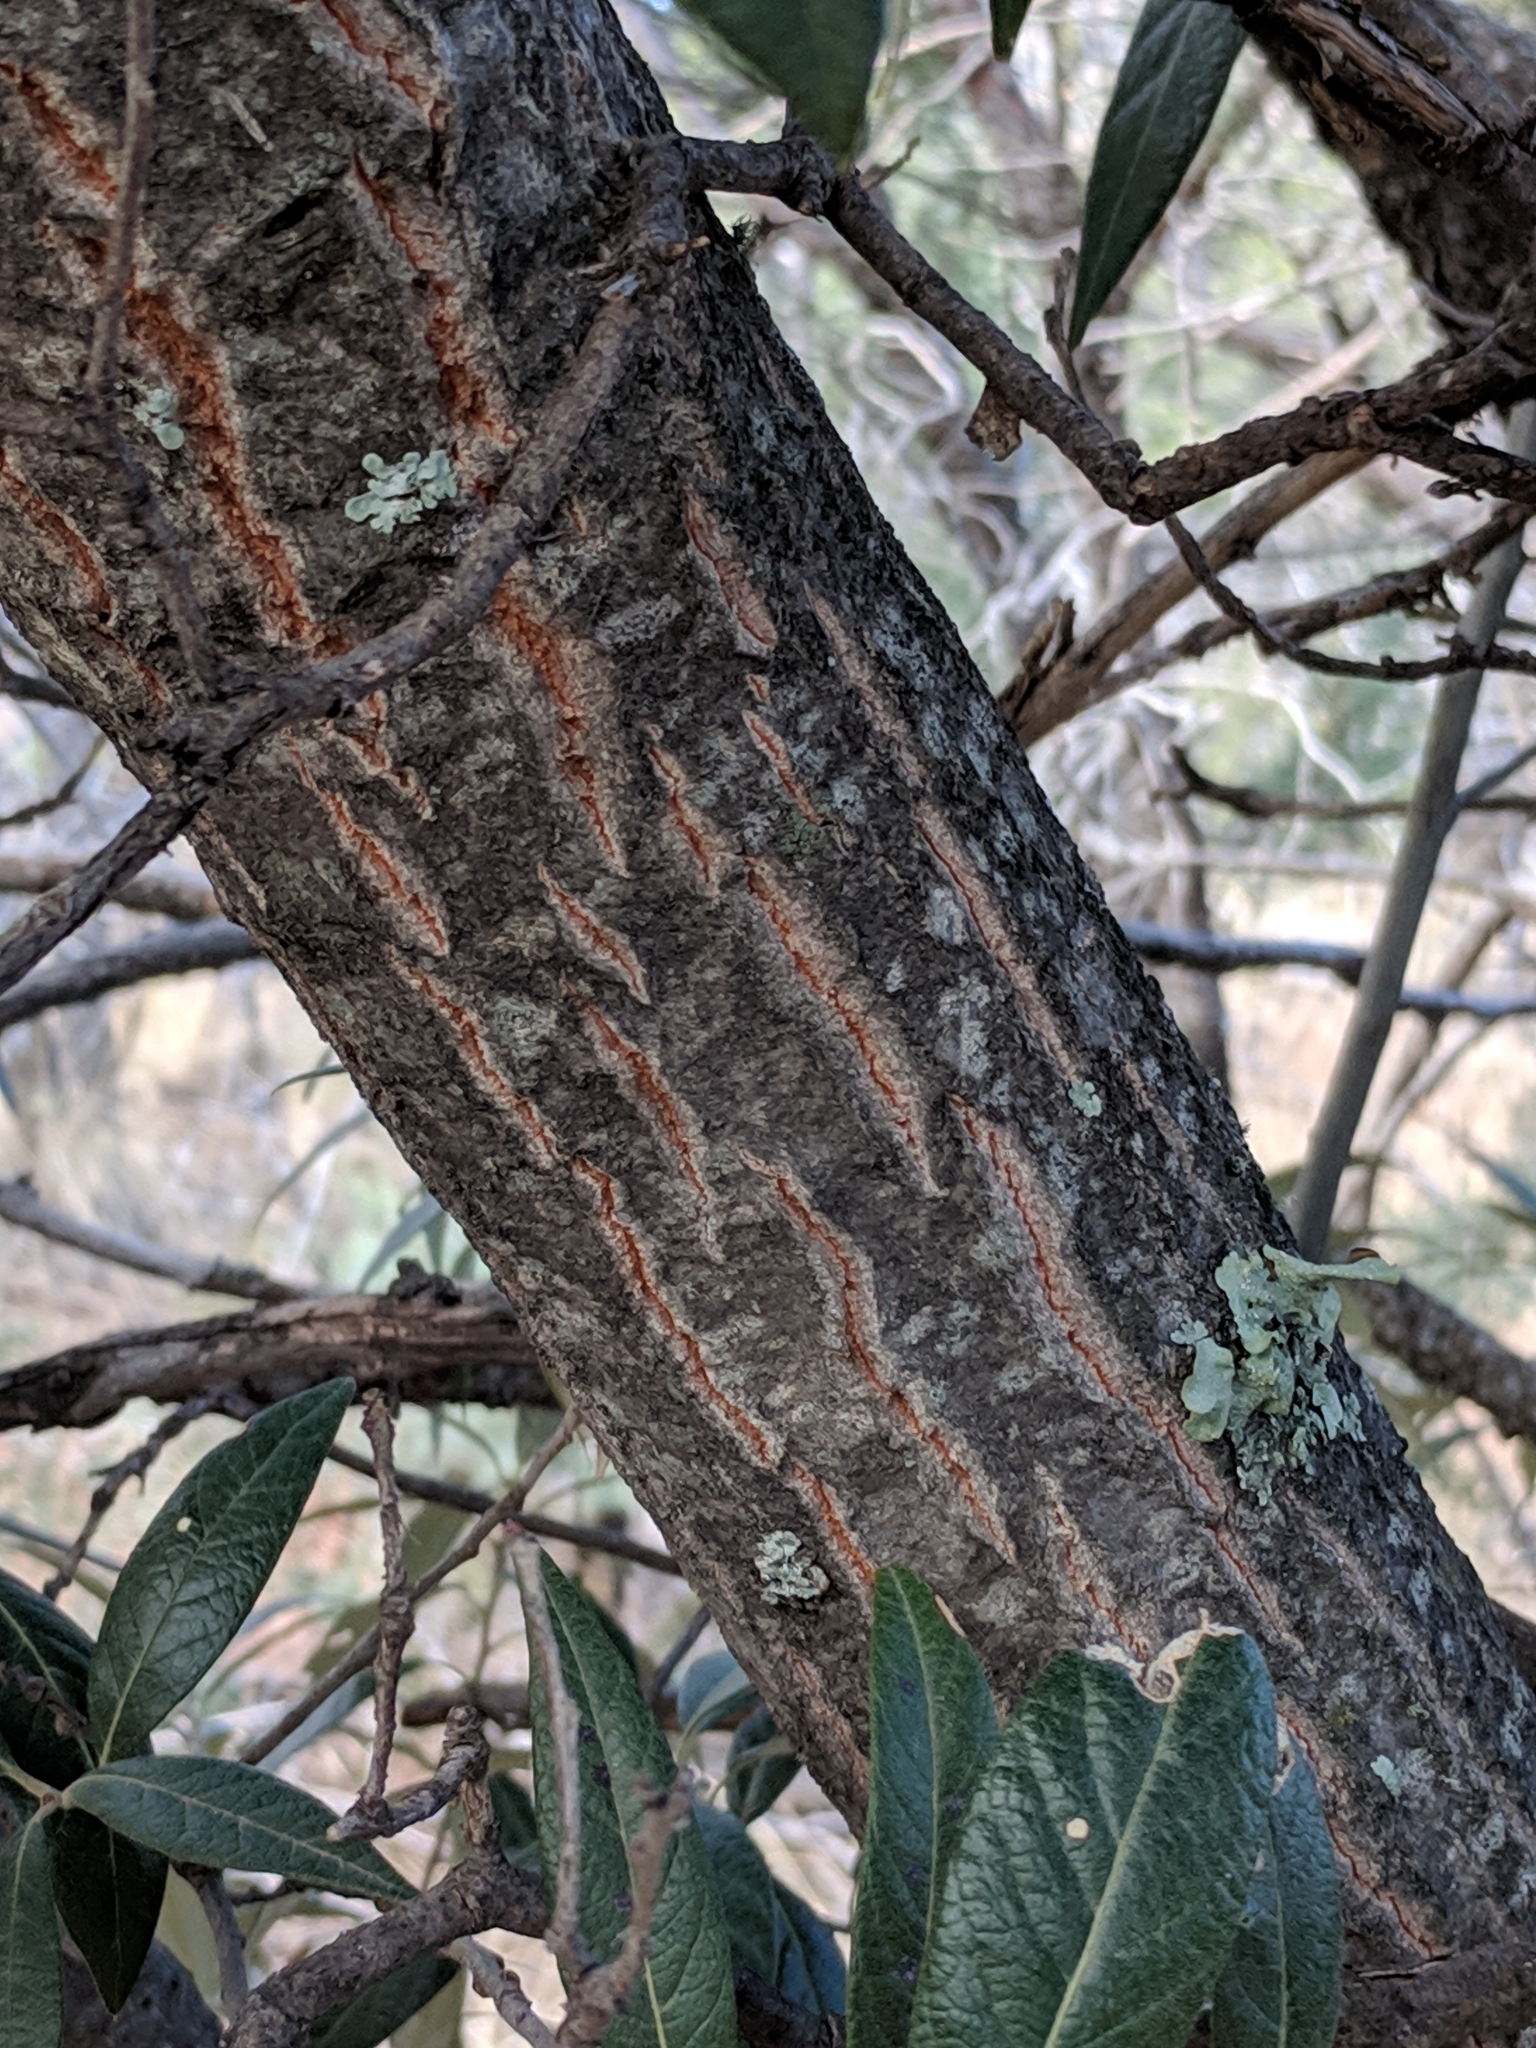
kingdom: Plantae
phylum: Tracheophyta
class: Magnoliopsida
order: Fagales
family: Fagaceae
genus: Quercus
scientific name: Quercus hypoleucoides
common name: Silverleaf oak
